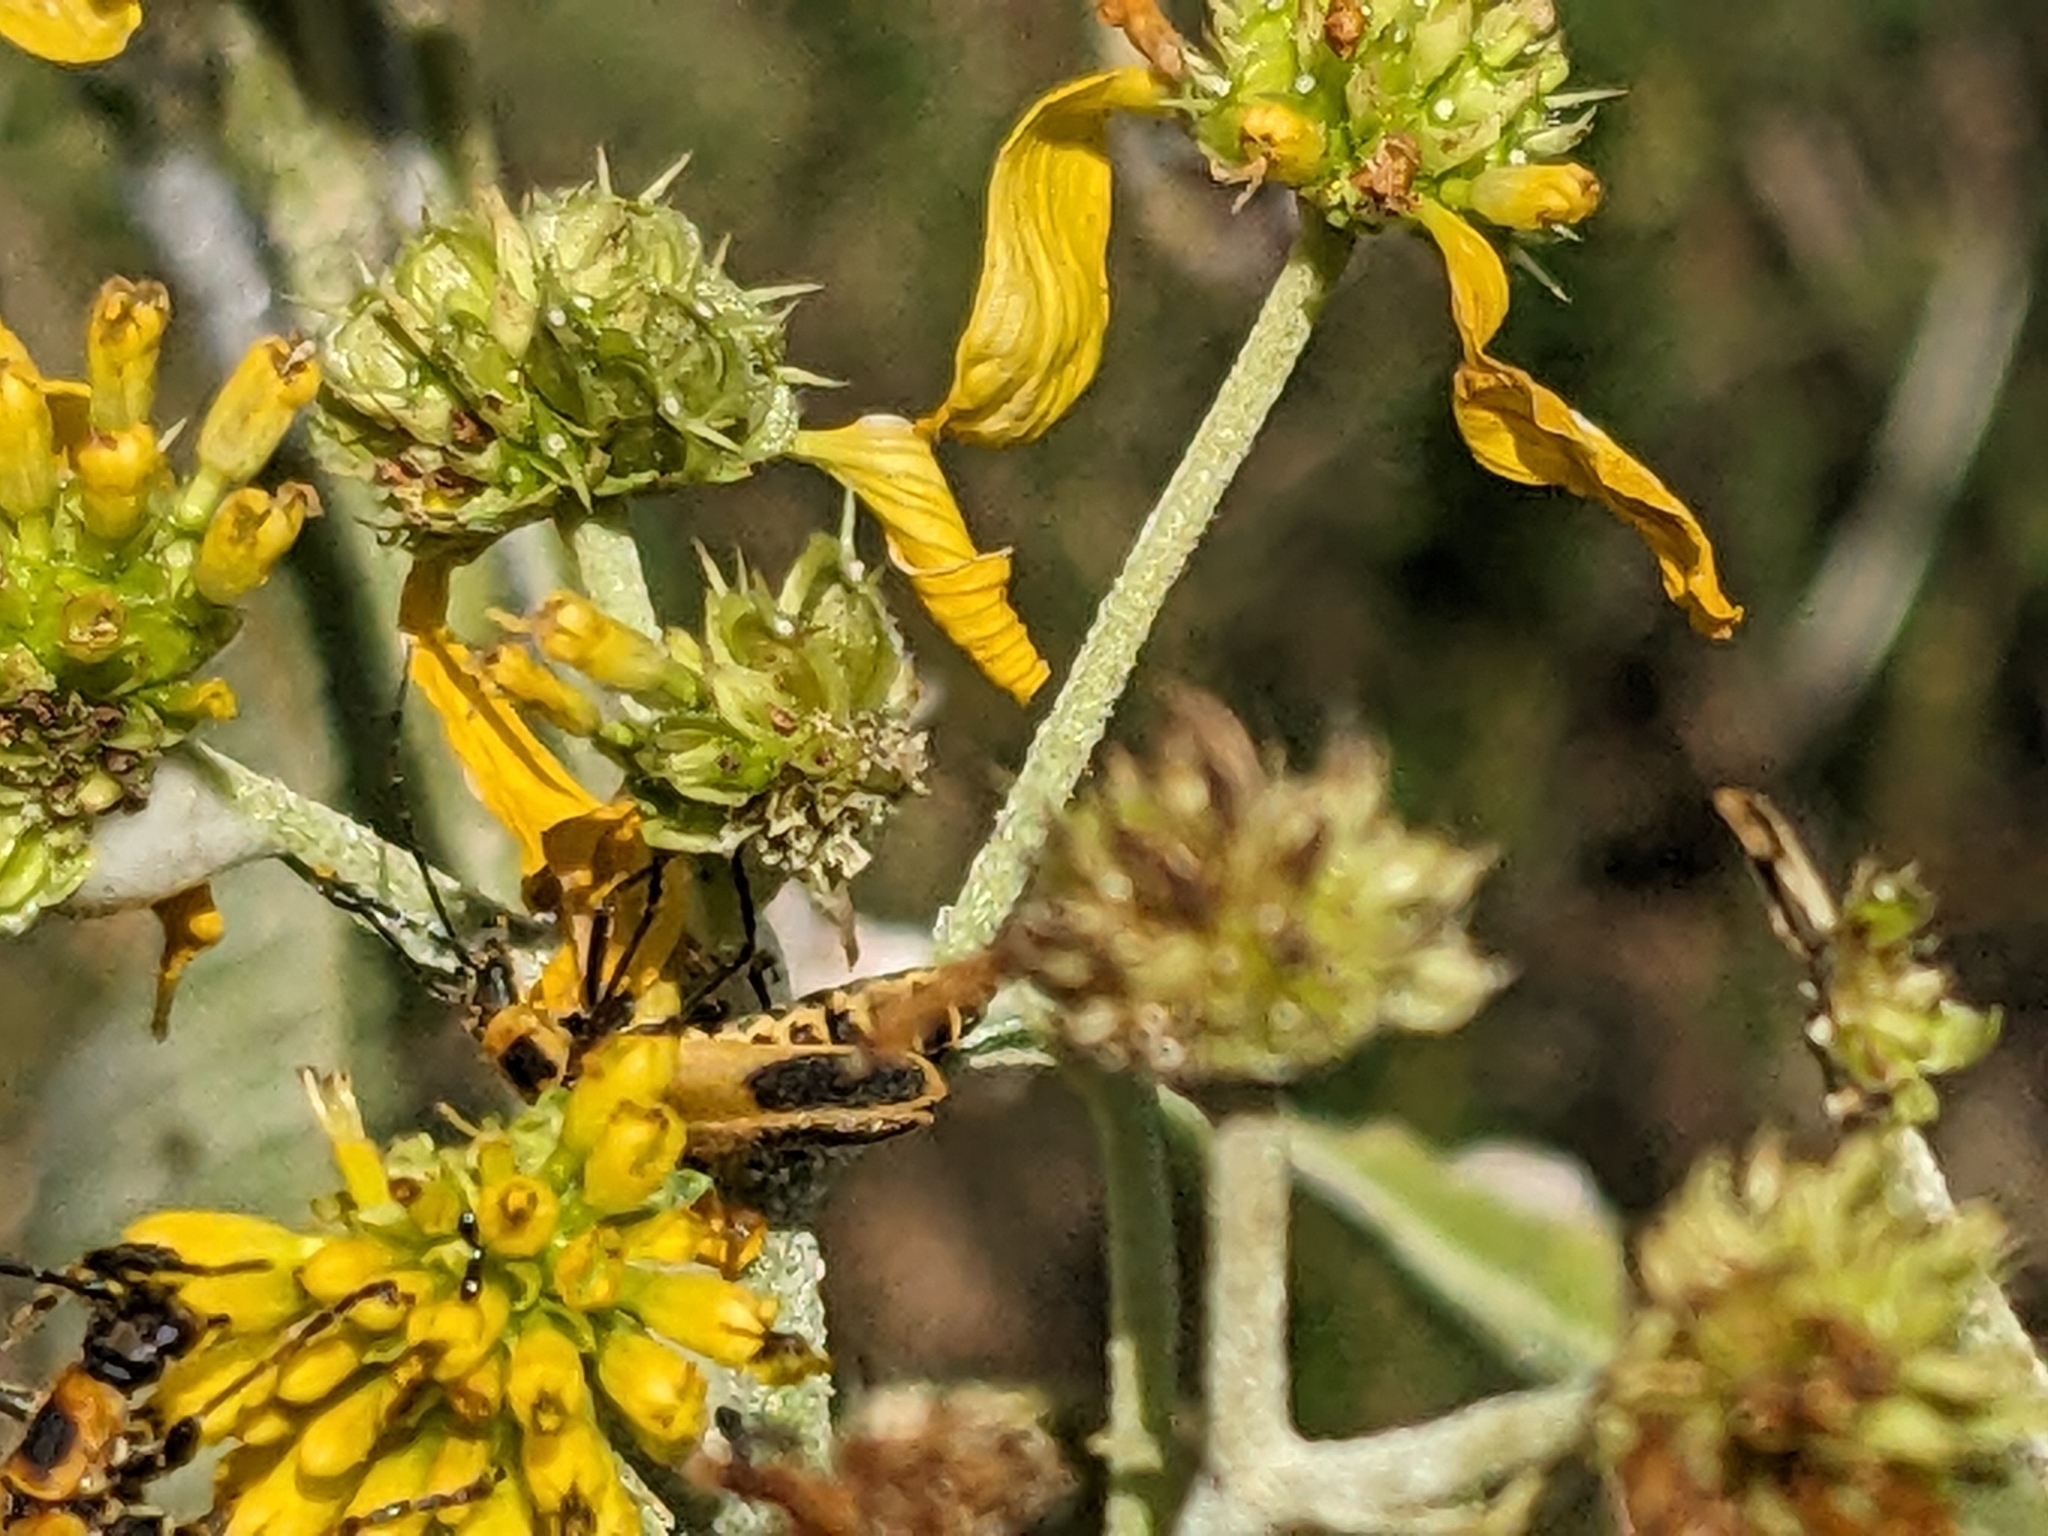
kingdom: Animalia
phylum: Arthropoda
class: Insecta
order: Coleoptera
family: Cantharidae
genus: Chauliognathus
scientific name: Chauliognathus pensylvanicus
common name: Goldenrod soldier beetle
